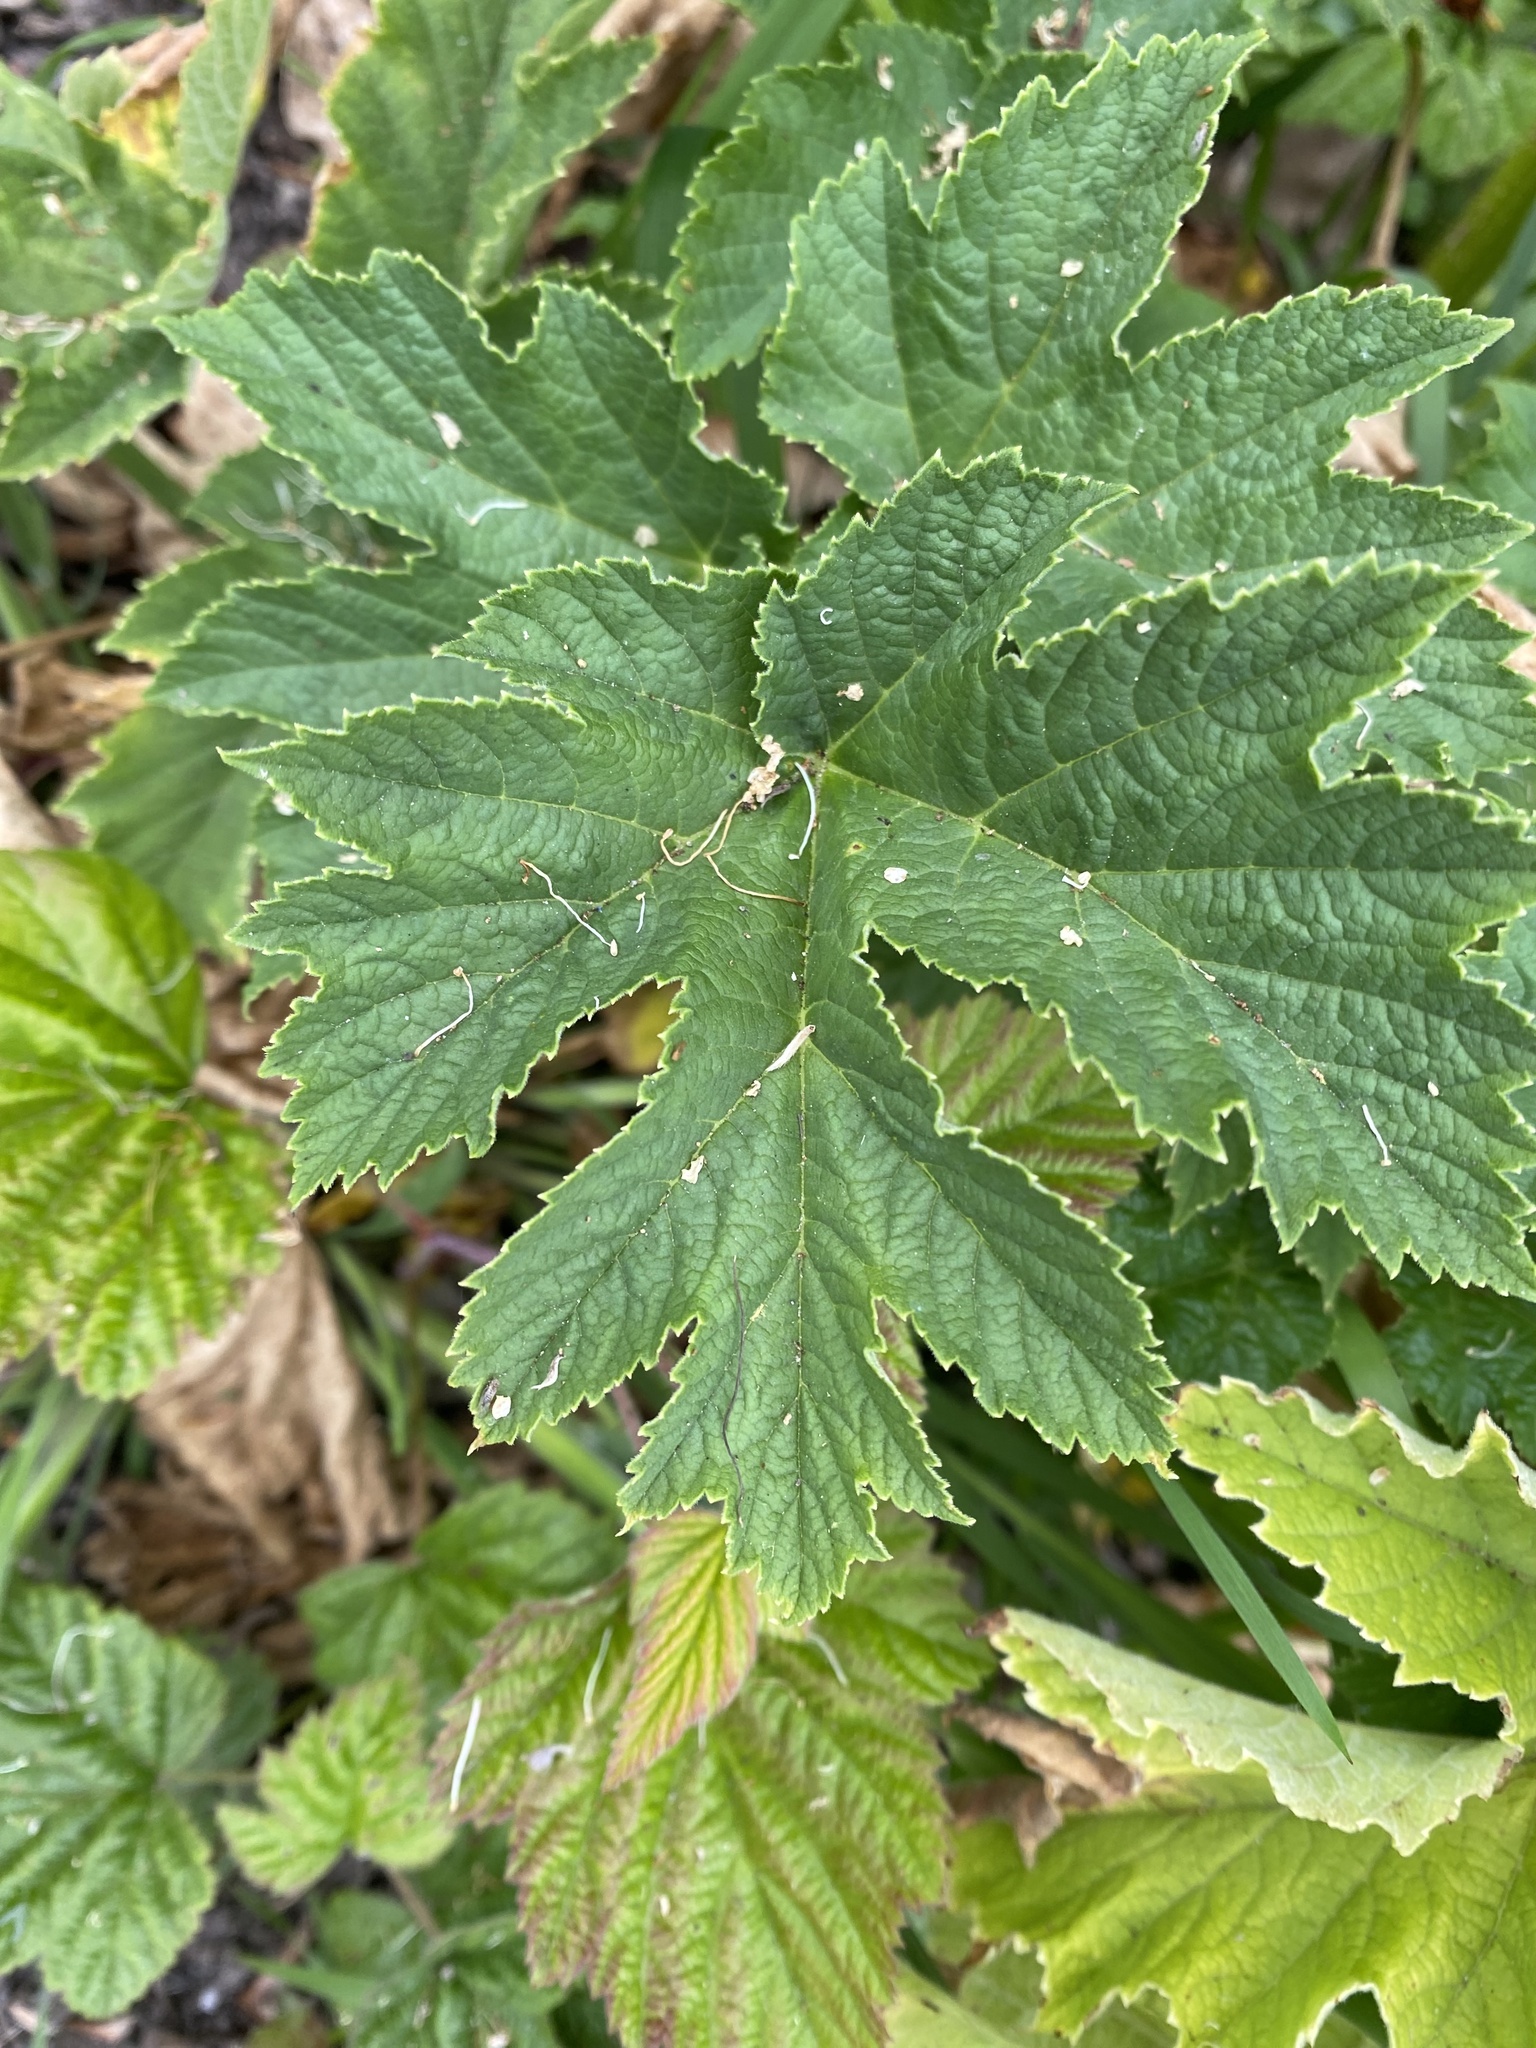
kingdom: Plantae
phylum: Tracheophyta
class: Magnoliopsida
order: Apiales
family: Apiaceae
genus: Heracleum
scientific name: Heracleum maximum
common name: American cow parsnip
